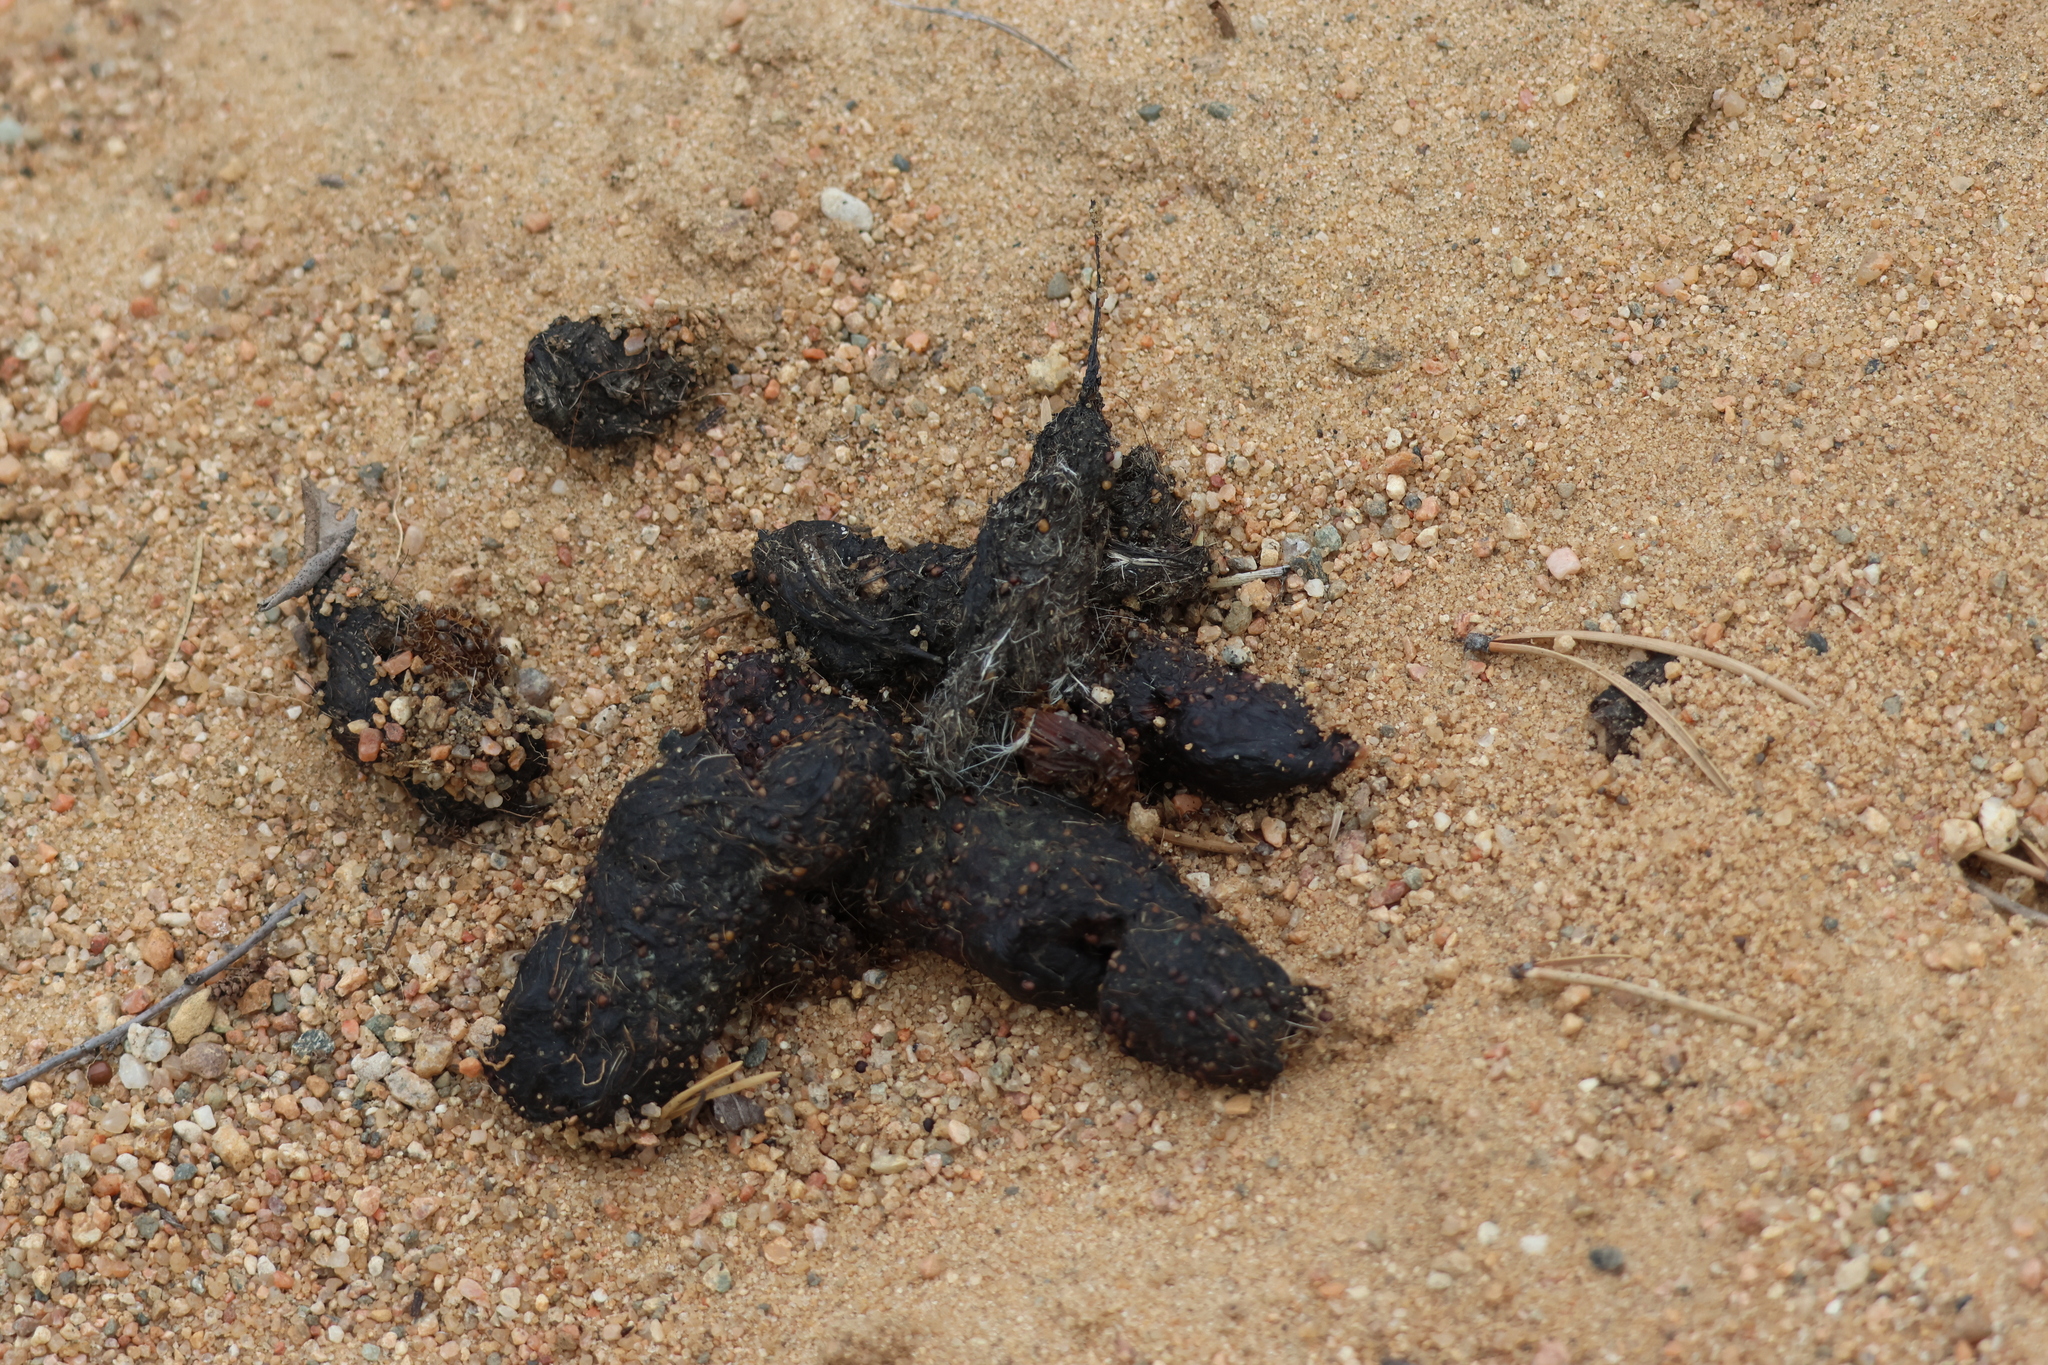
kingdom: Animalia
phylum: Chordata
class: Mammalia
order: Carnivora
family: Ursidae
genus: Ursus
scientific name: Ursus americanus
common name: American black bear
